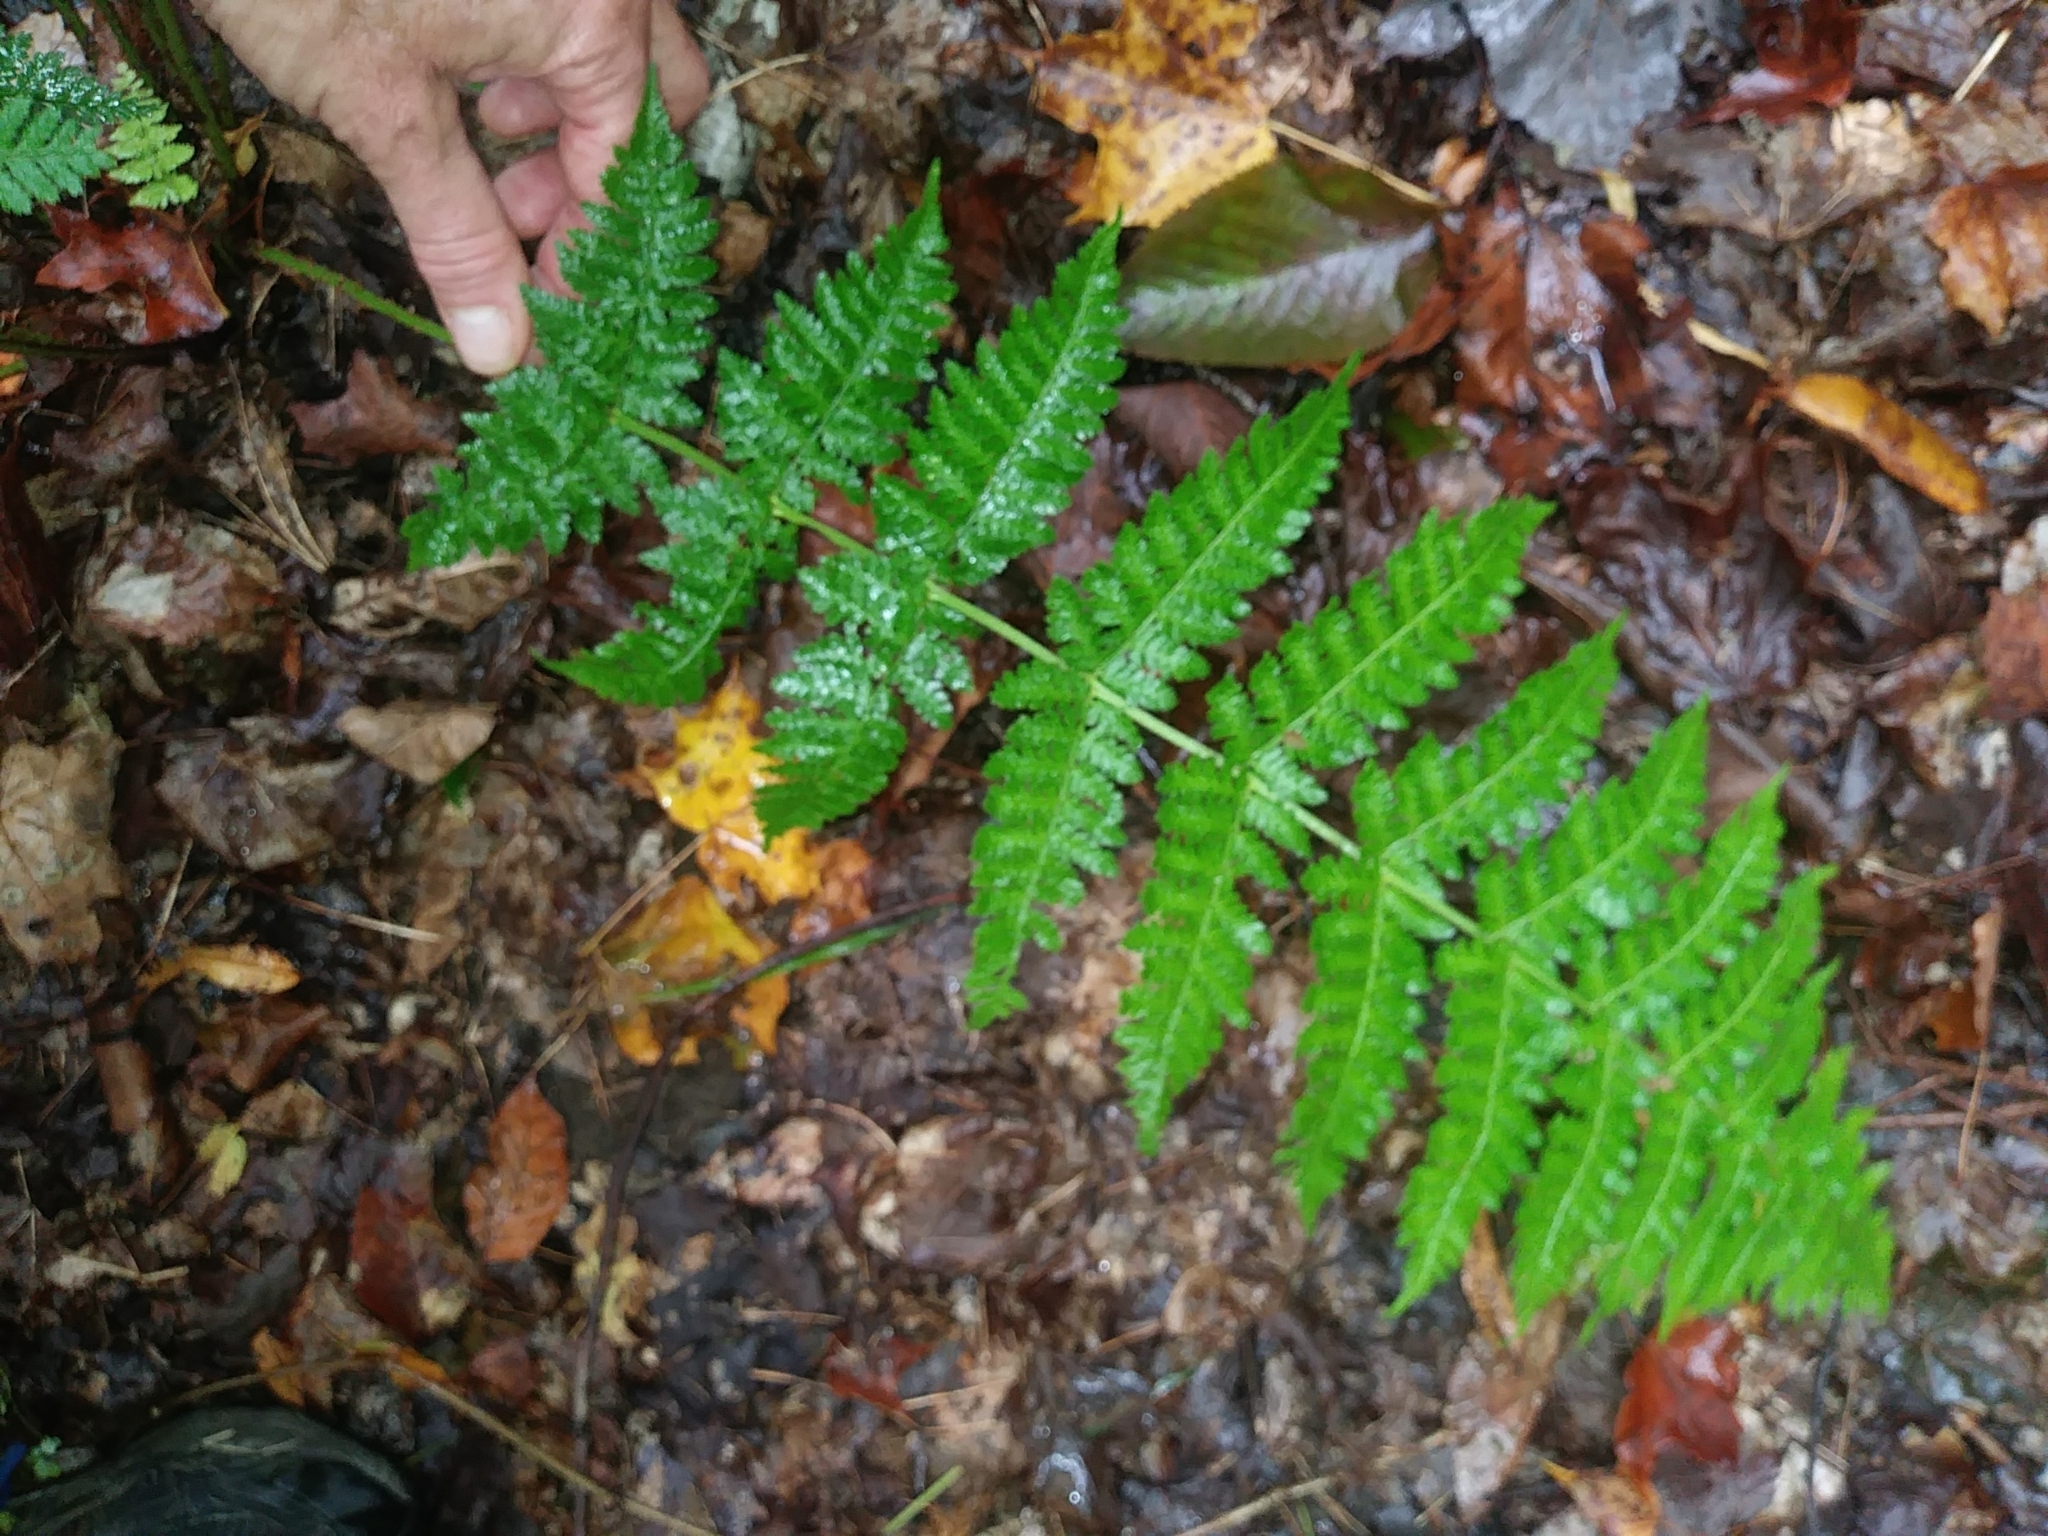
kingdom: Plantae
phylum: Tracheophyta
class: Polypodiopsida
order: Polypodiales
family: Dryopteridaceae
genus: Dryopteris
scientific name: Dryopteris intermedia
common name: Evergreen wood fern
